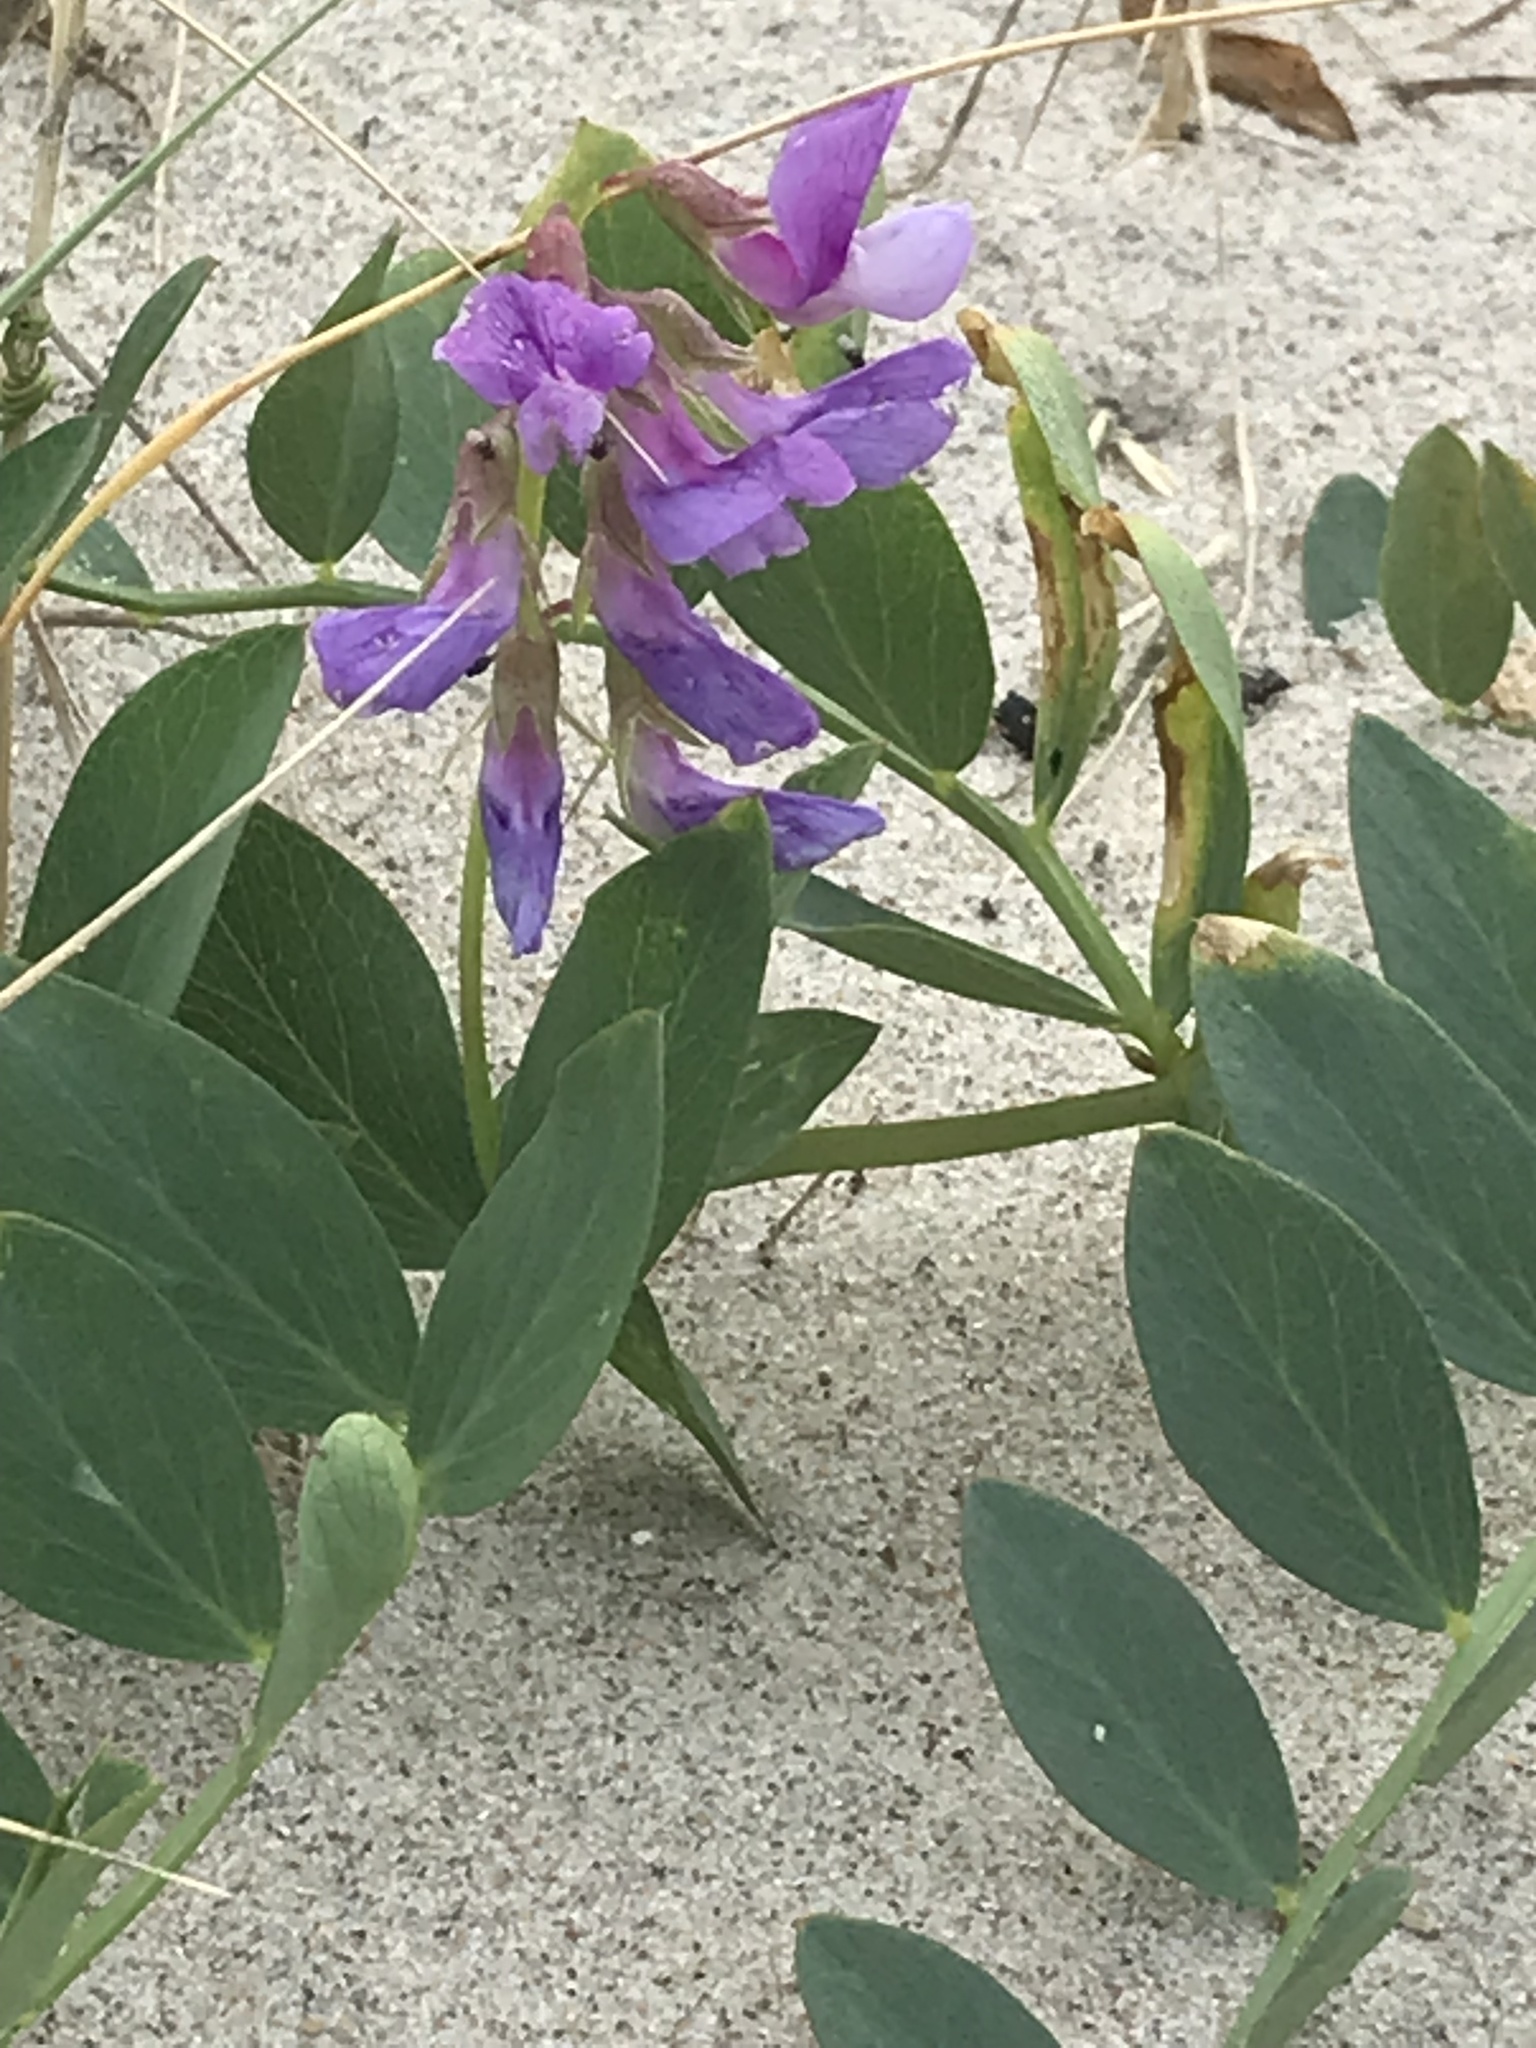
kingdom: Plantae
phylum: Tracheophyta
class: Magnoliopsida
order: Fabales
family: Fabaceae
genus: Lathyrus
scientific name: Lathyrus japonicus
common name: Sea pea
